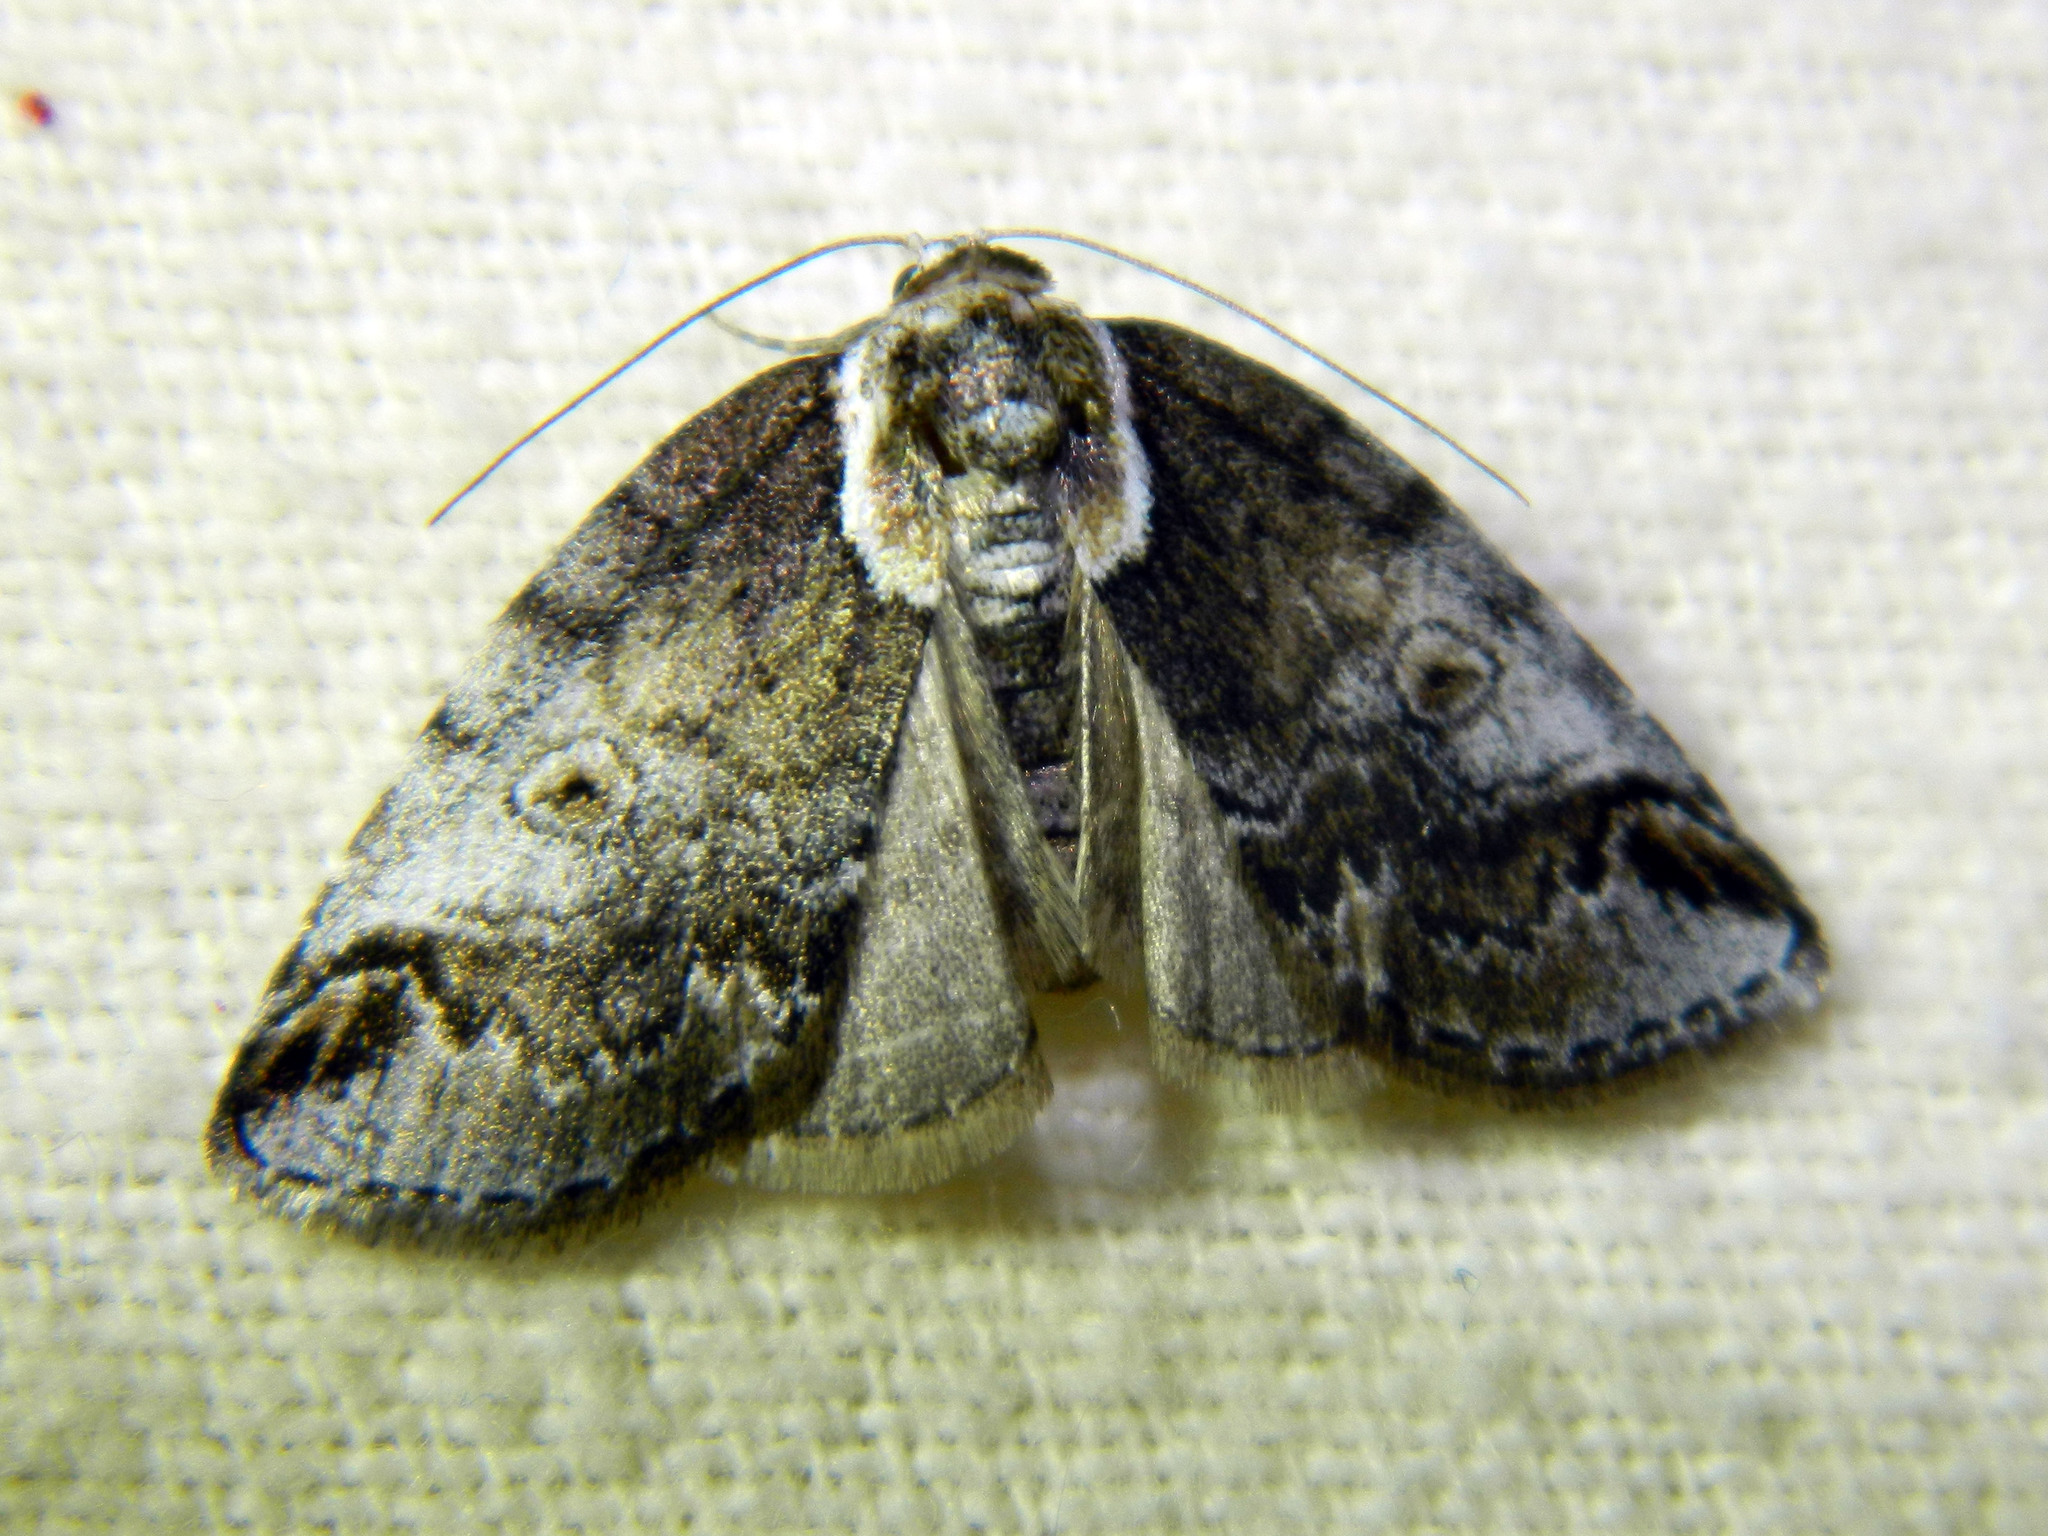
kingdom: Animalia
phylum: Arthropoda
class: Insecta
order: Lepidoptera
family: Nolidae
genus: Baileya
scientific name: Baileya ophthalmica
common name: Eyed baileya moth
